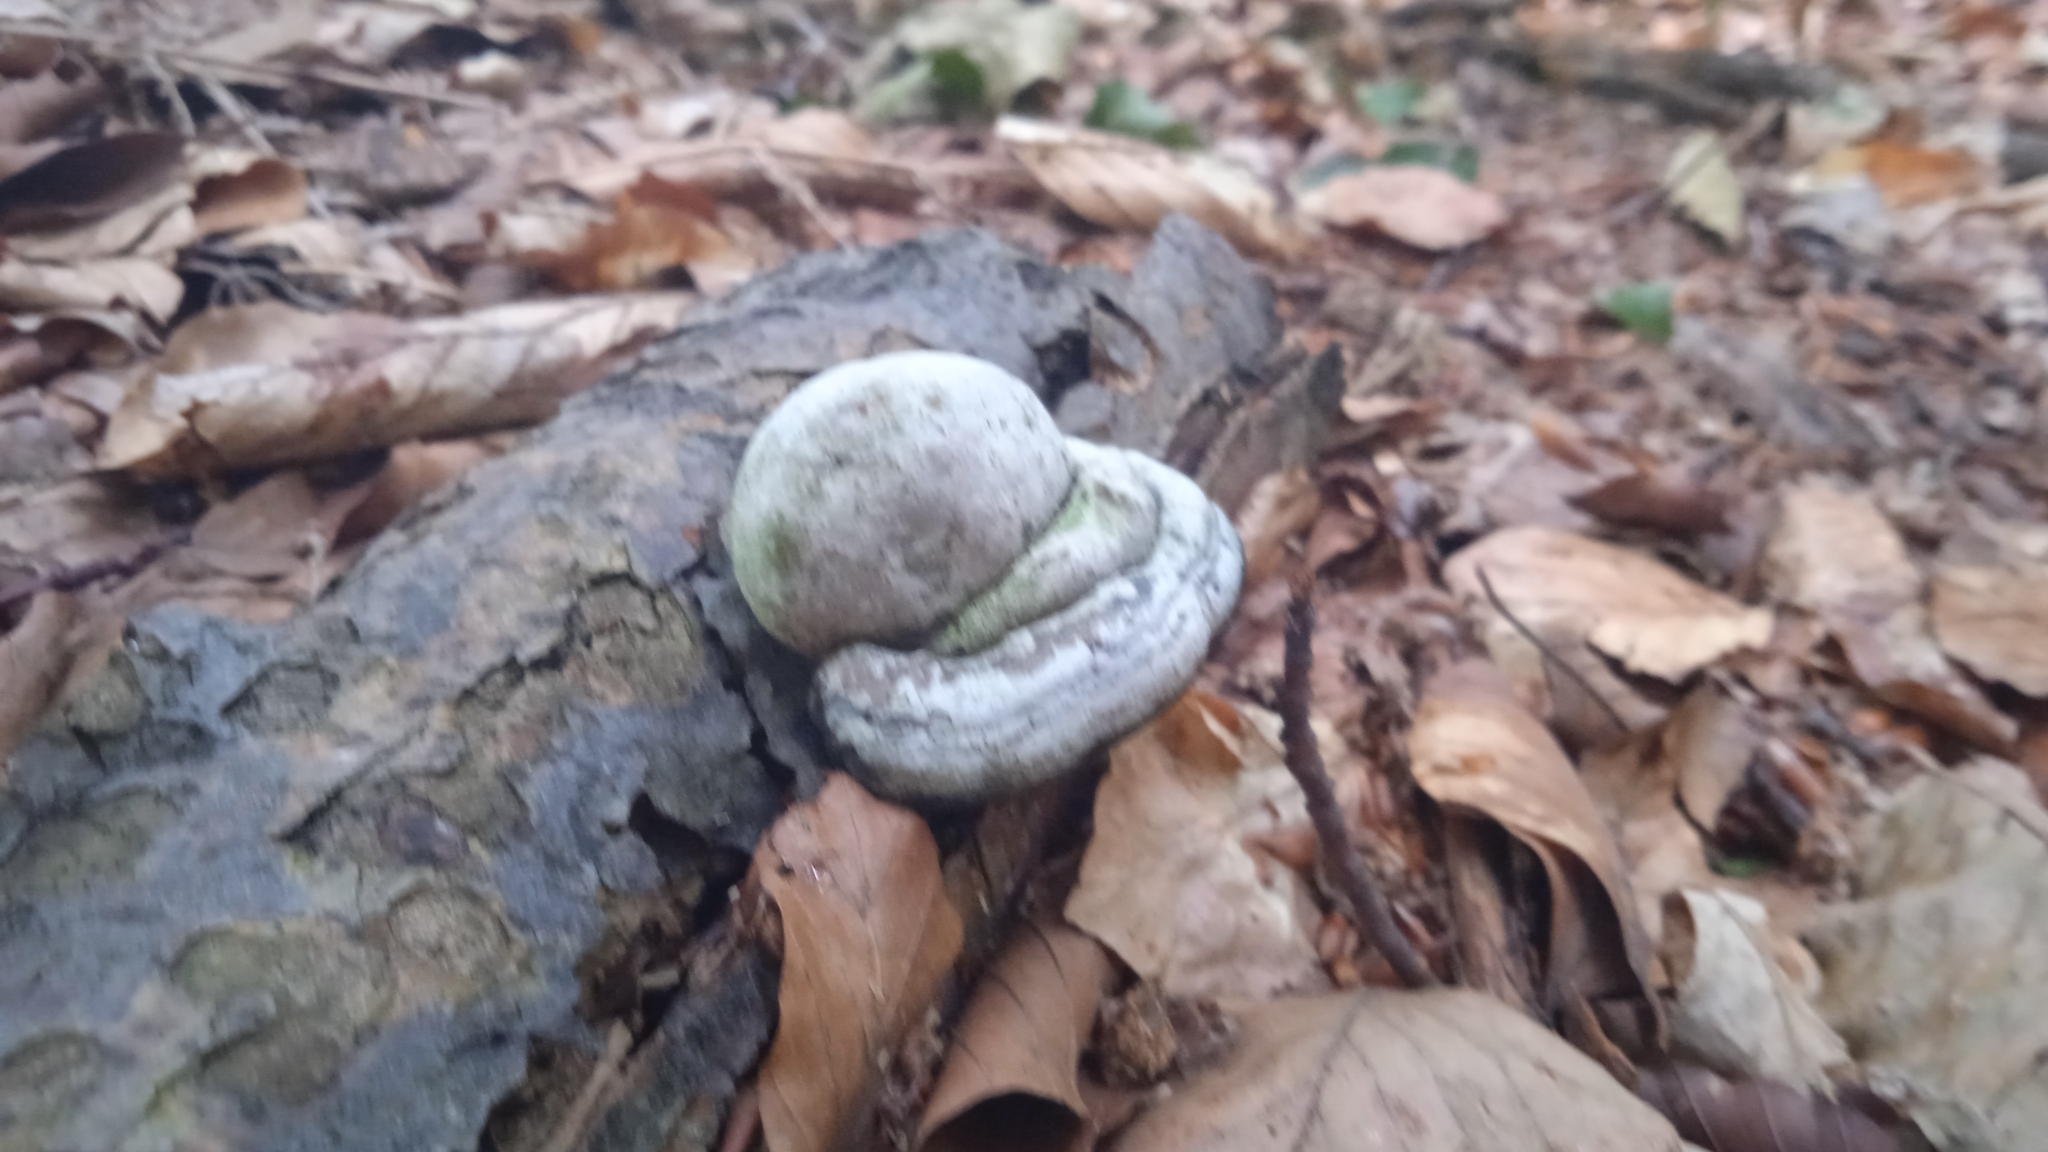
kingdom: Fungi
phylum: Basidiomycota
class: Agaricomycetes
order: Polyporales
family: Polyporaceae
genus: Fomes
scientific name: Fomes fomentarius
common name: Hoof fungus
